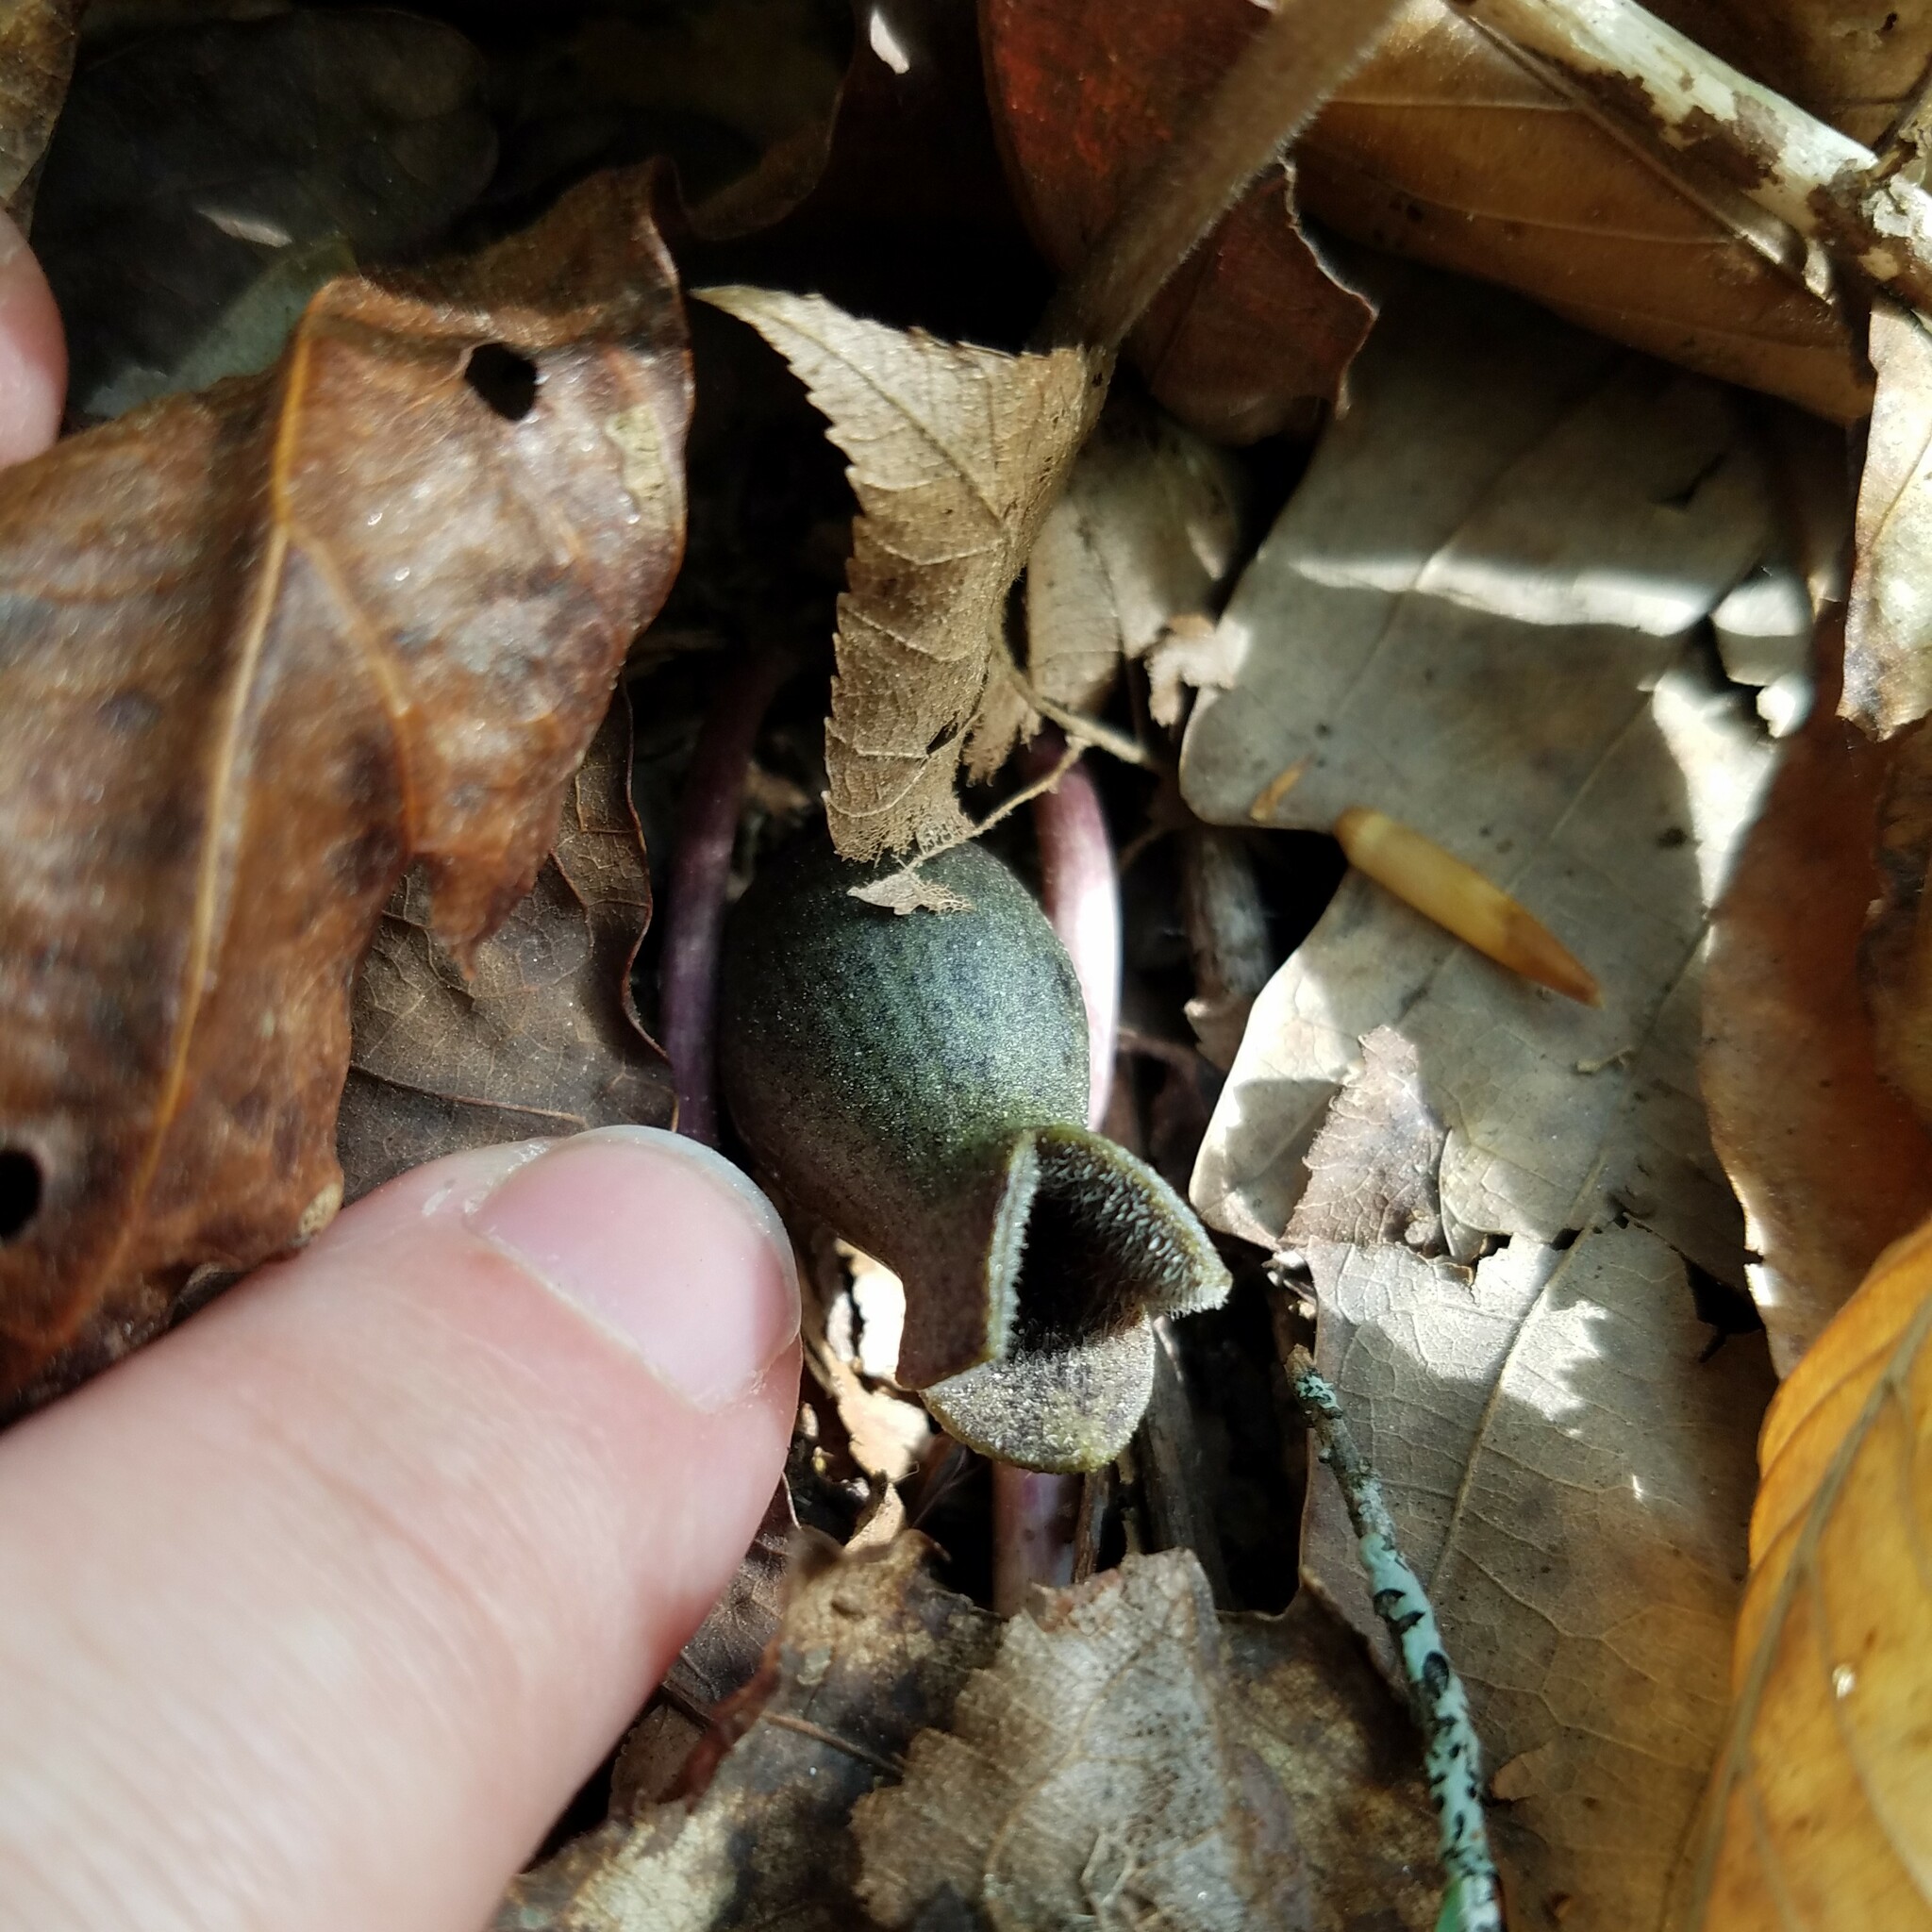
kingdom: Plantae
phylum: Tracheophyta
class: Magnoliopsida
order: Piperales
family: Aristolochiaceae
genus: Hexastylis
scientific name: Hexastylis arifolia
